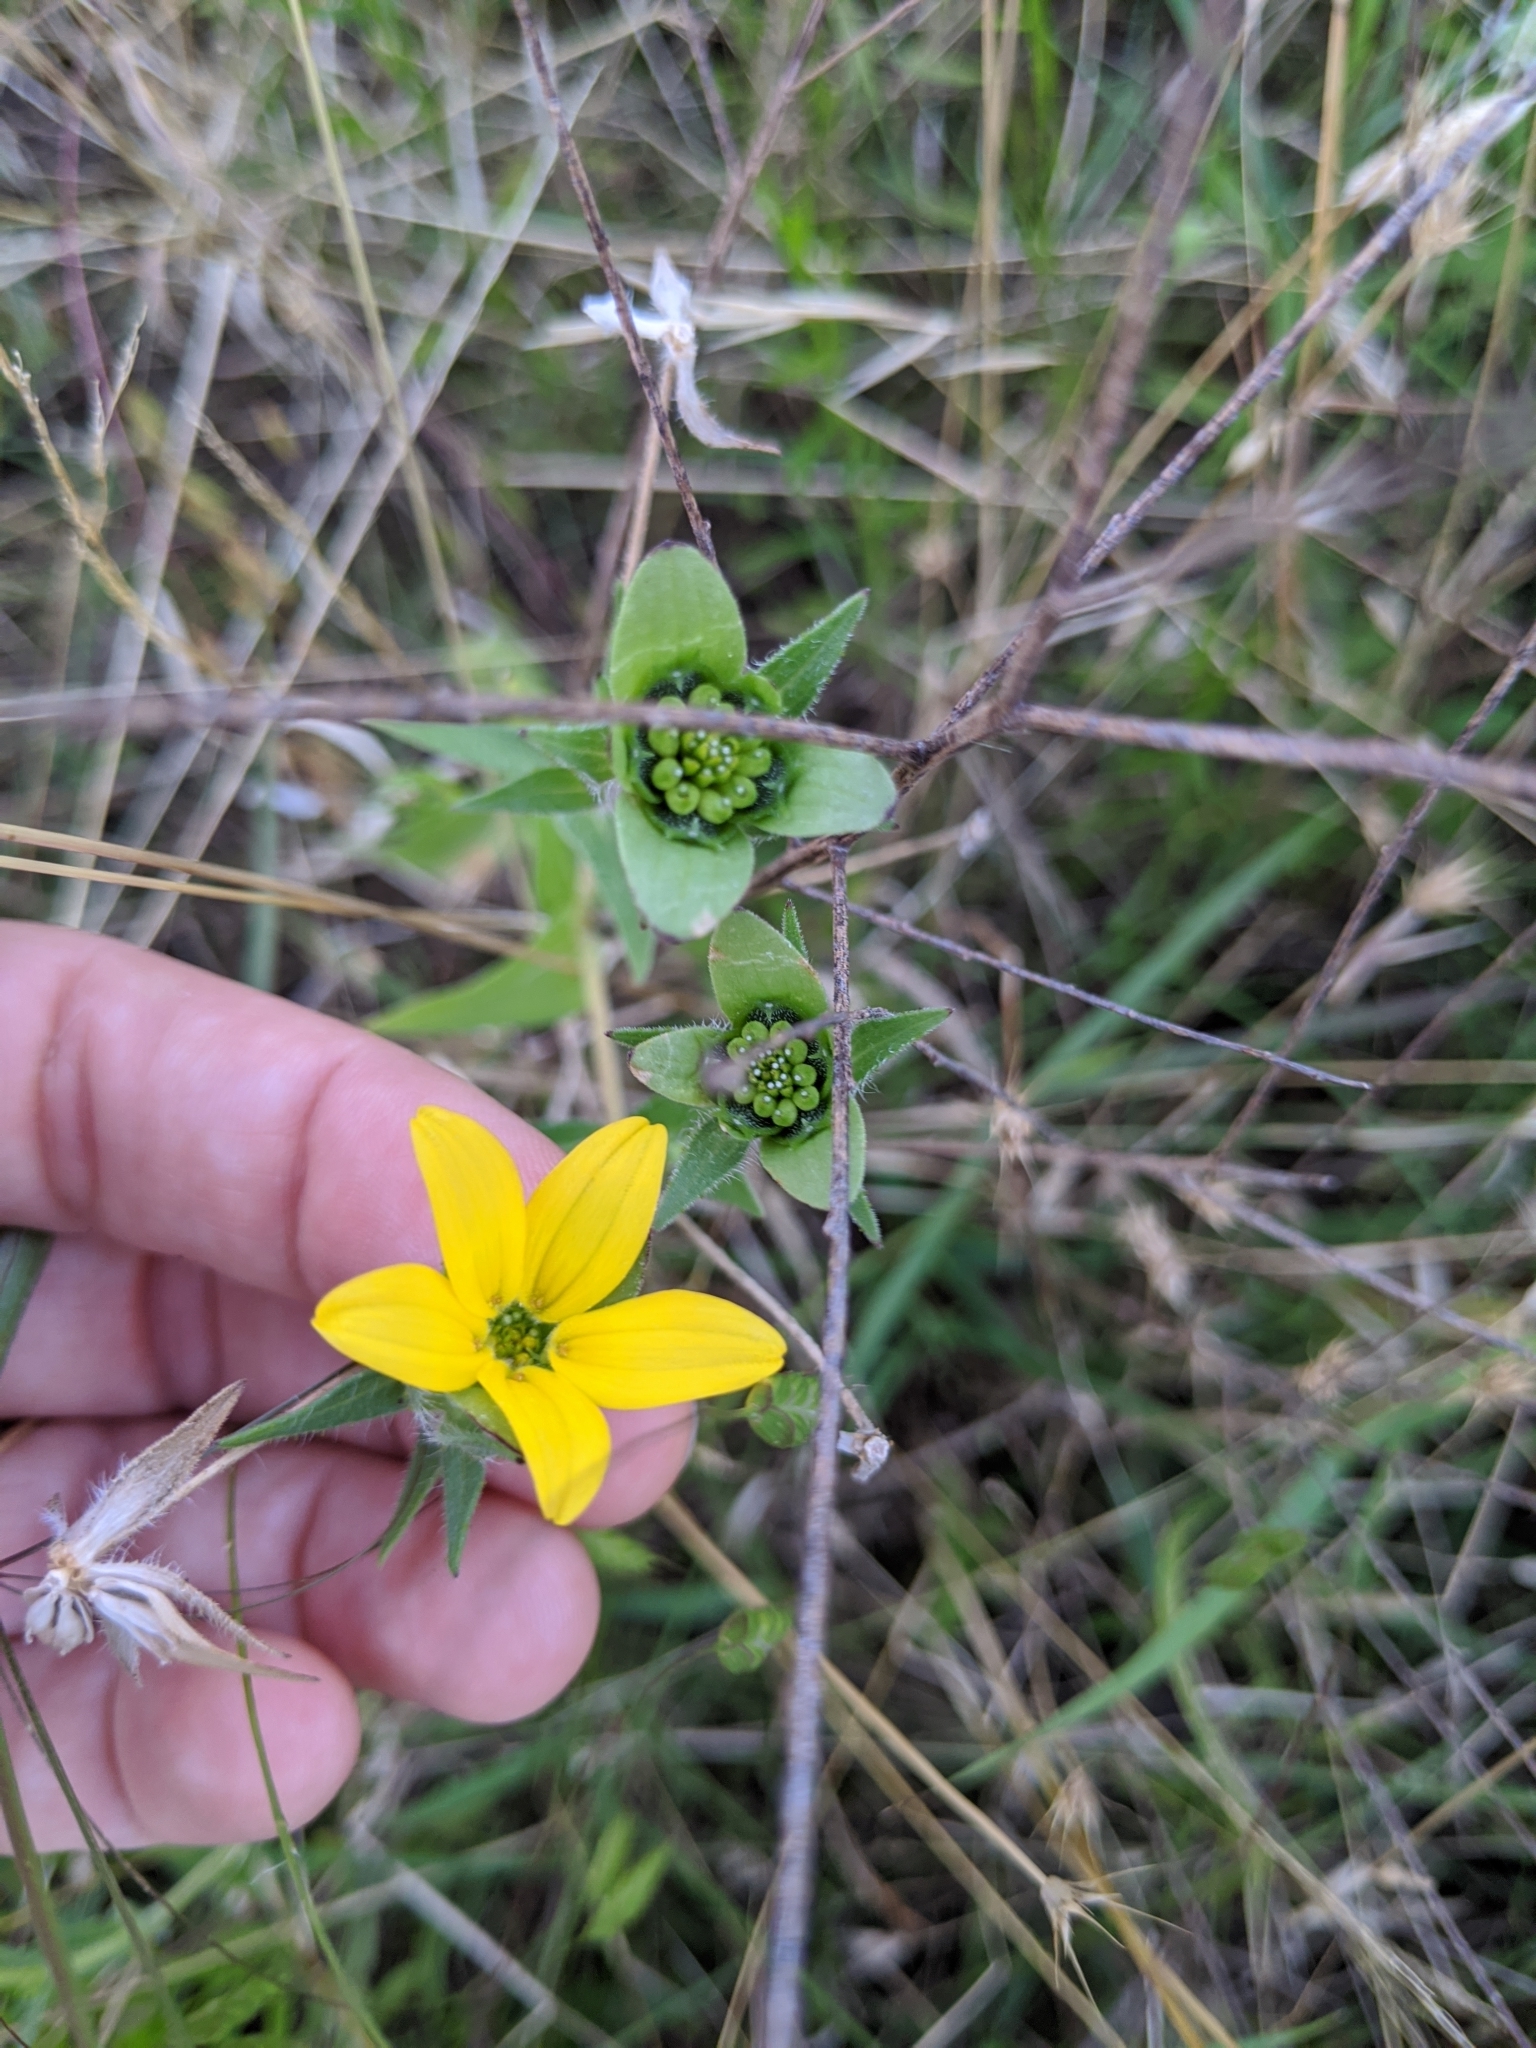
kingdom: Plantae
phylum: Tracheophyta
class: Magnoliopsida
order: Asterales
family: Asteraceae
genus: Lindheimera
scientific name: Lindheimera texana
